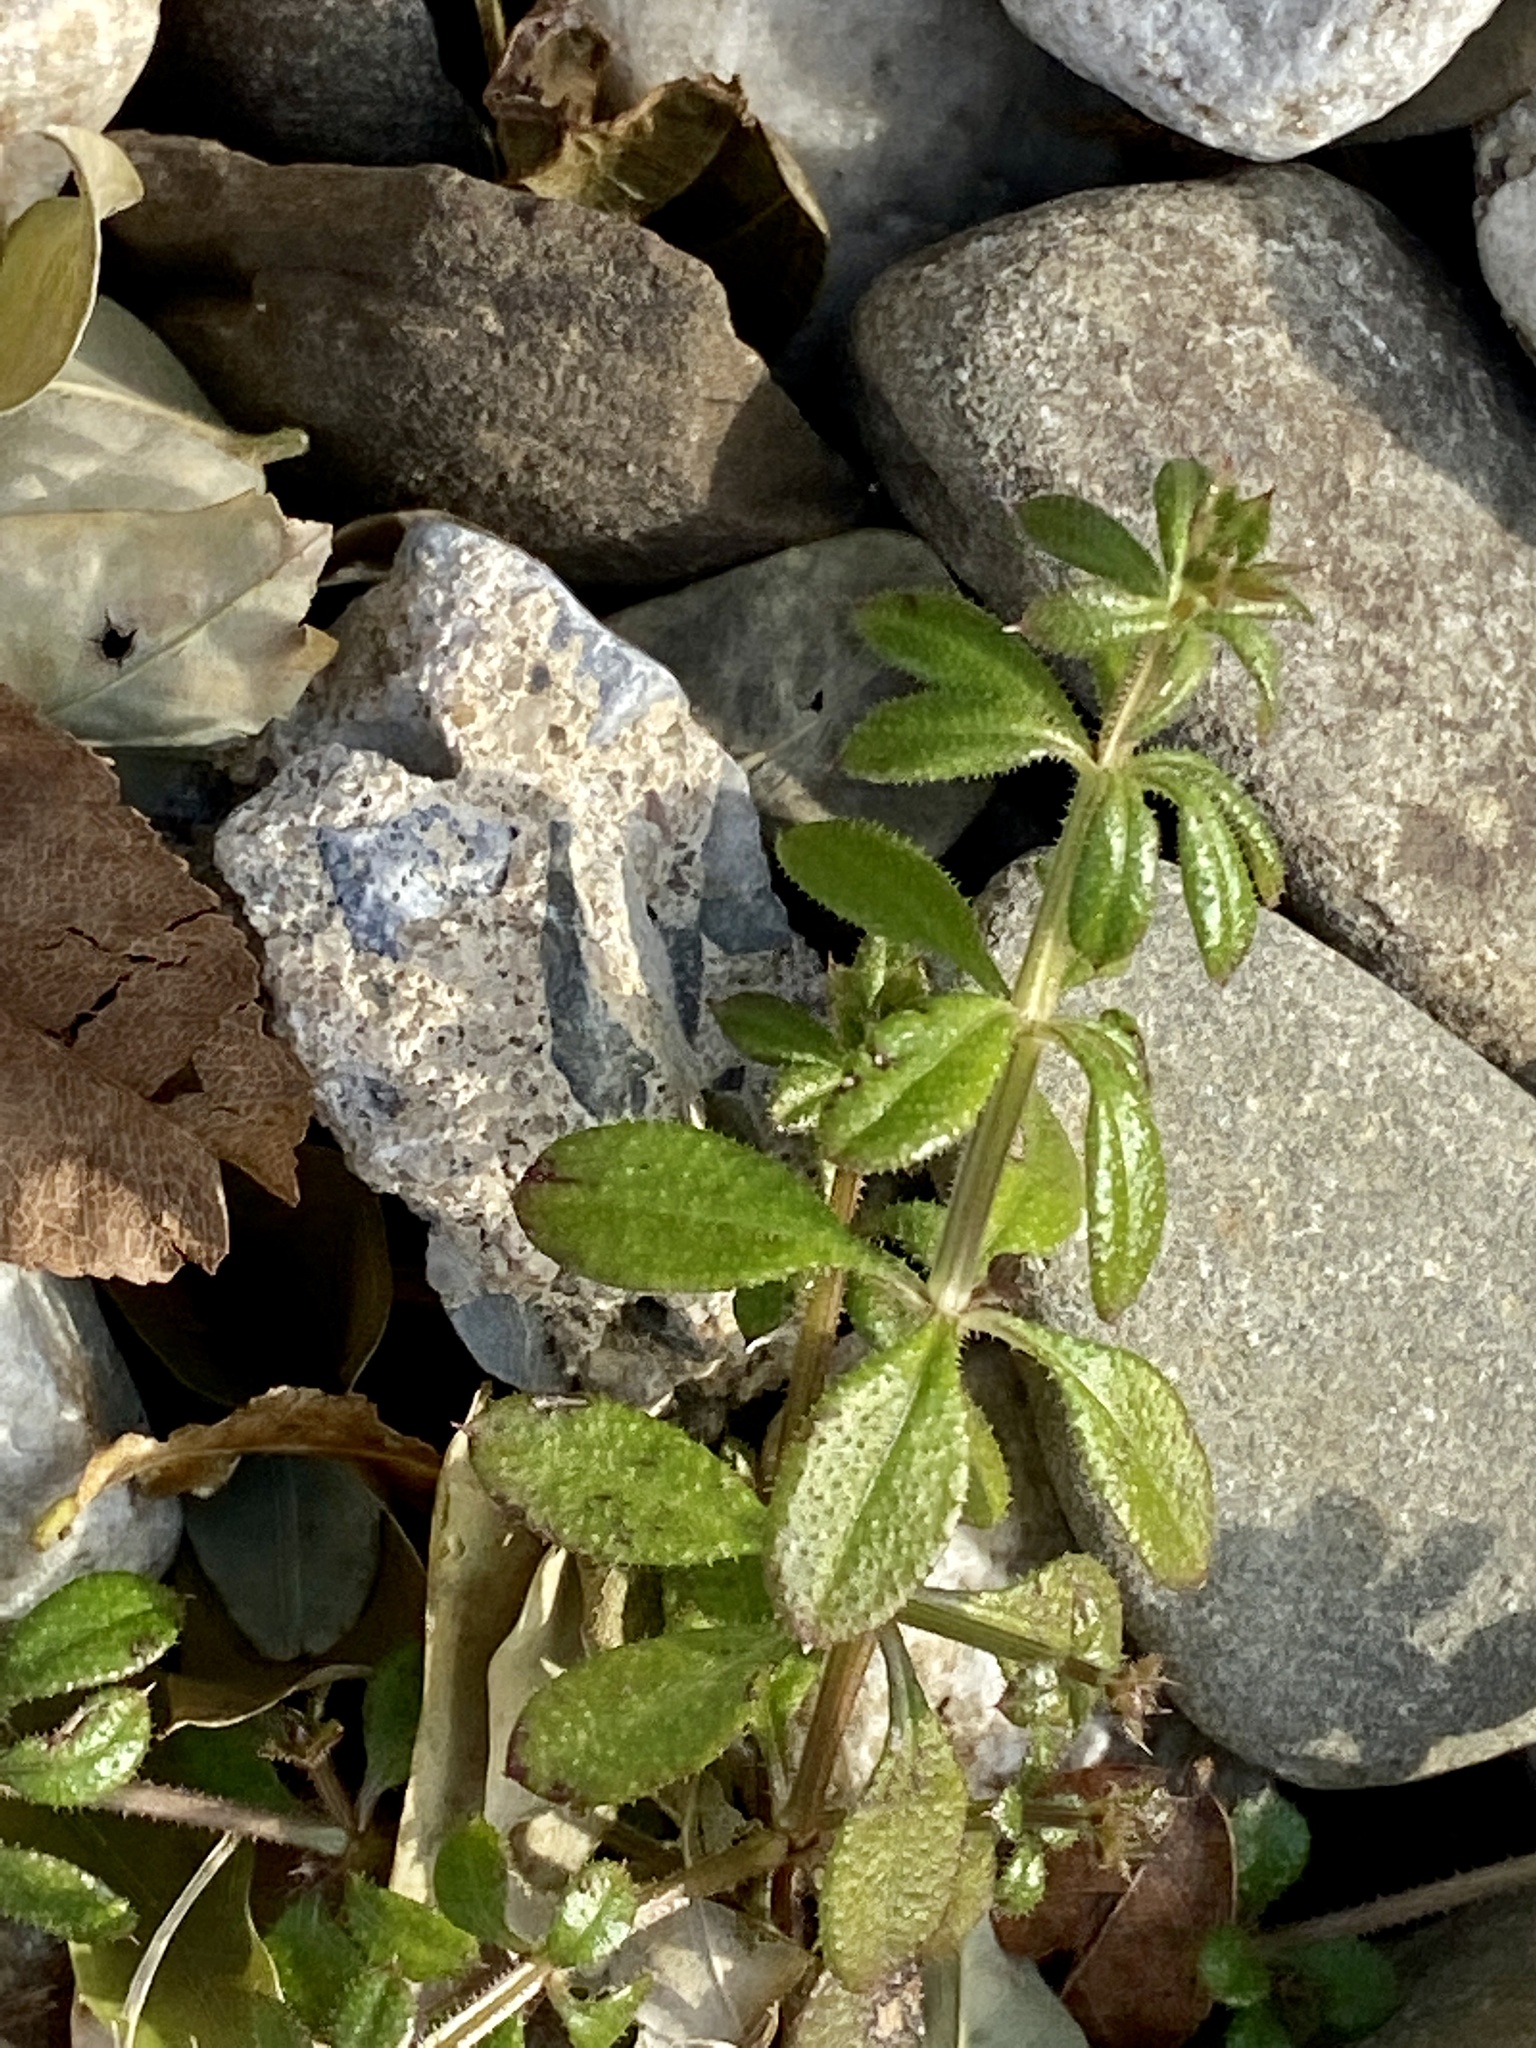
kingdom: Plantae
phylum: Tracheophyta
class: Magnoliopsida
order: Gentianales
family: Rubiaceae
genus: Galium
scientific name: Galium aparine
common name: Cleavers
